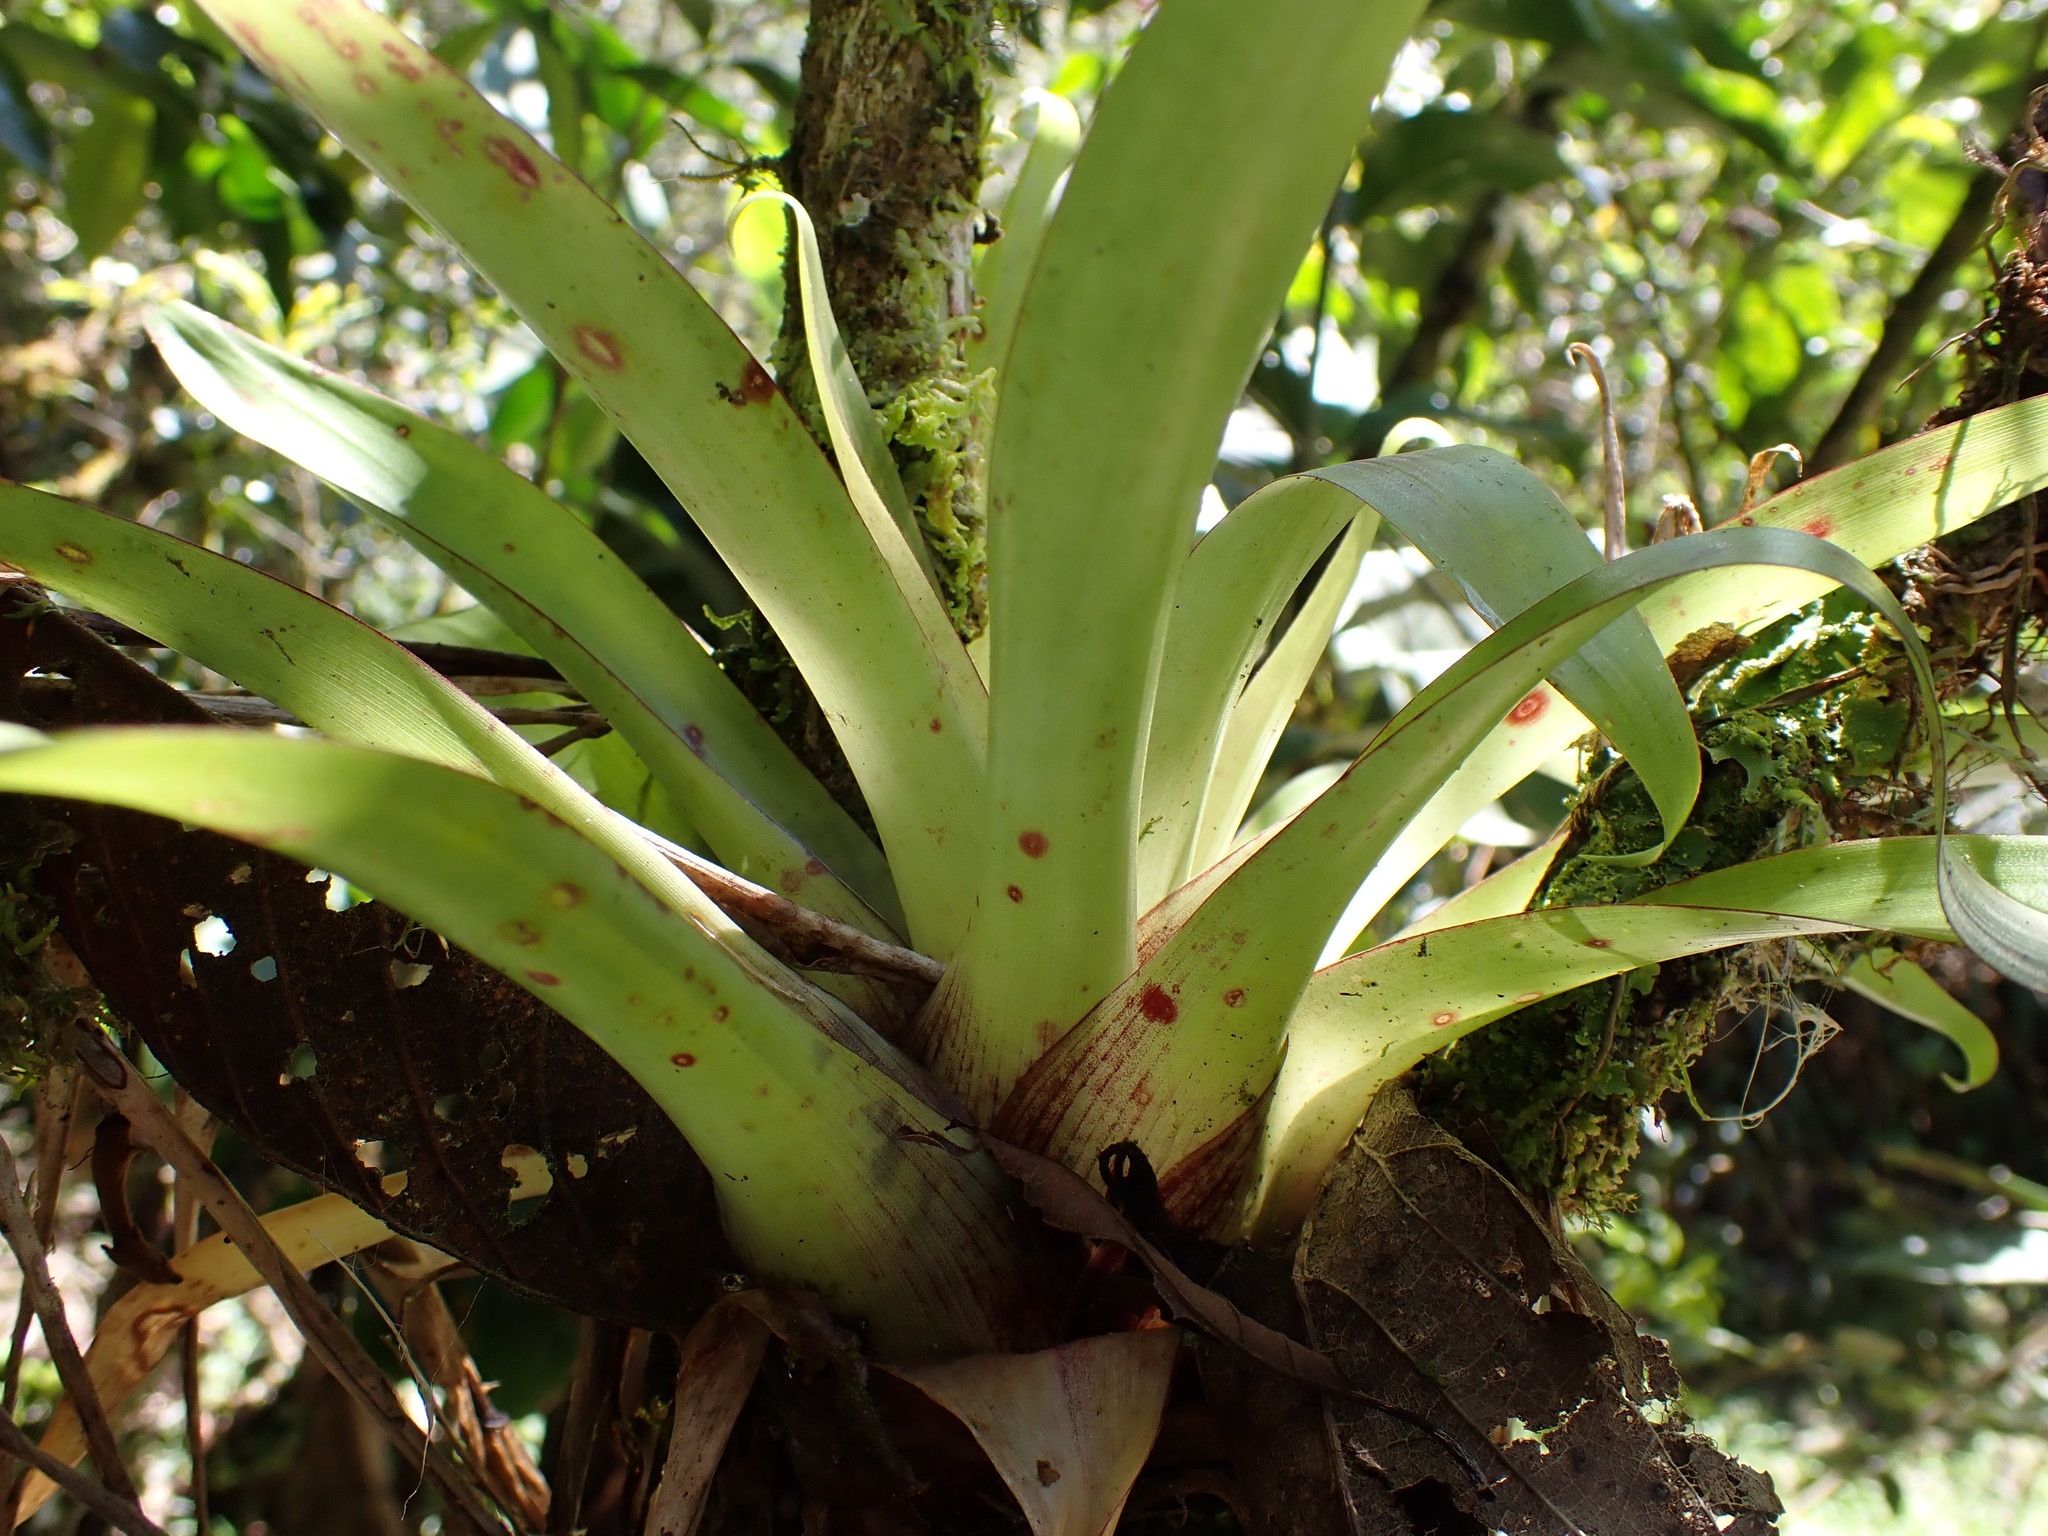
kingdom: Plantae
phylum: Tracheophyta
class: Liliopsida
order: Poales
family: Bromeliaceae
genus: Tillandsia
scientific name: Tillandsia biflora
